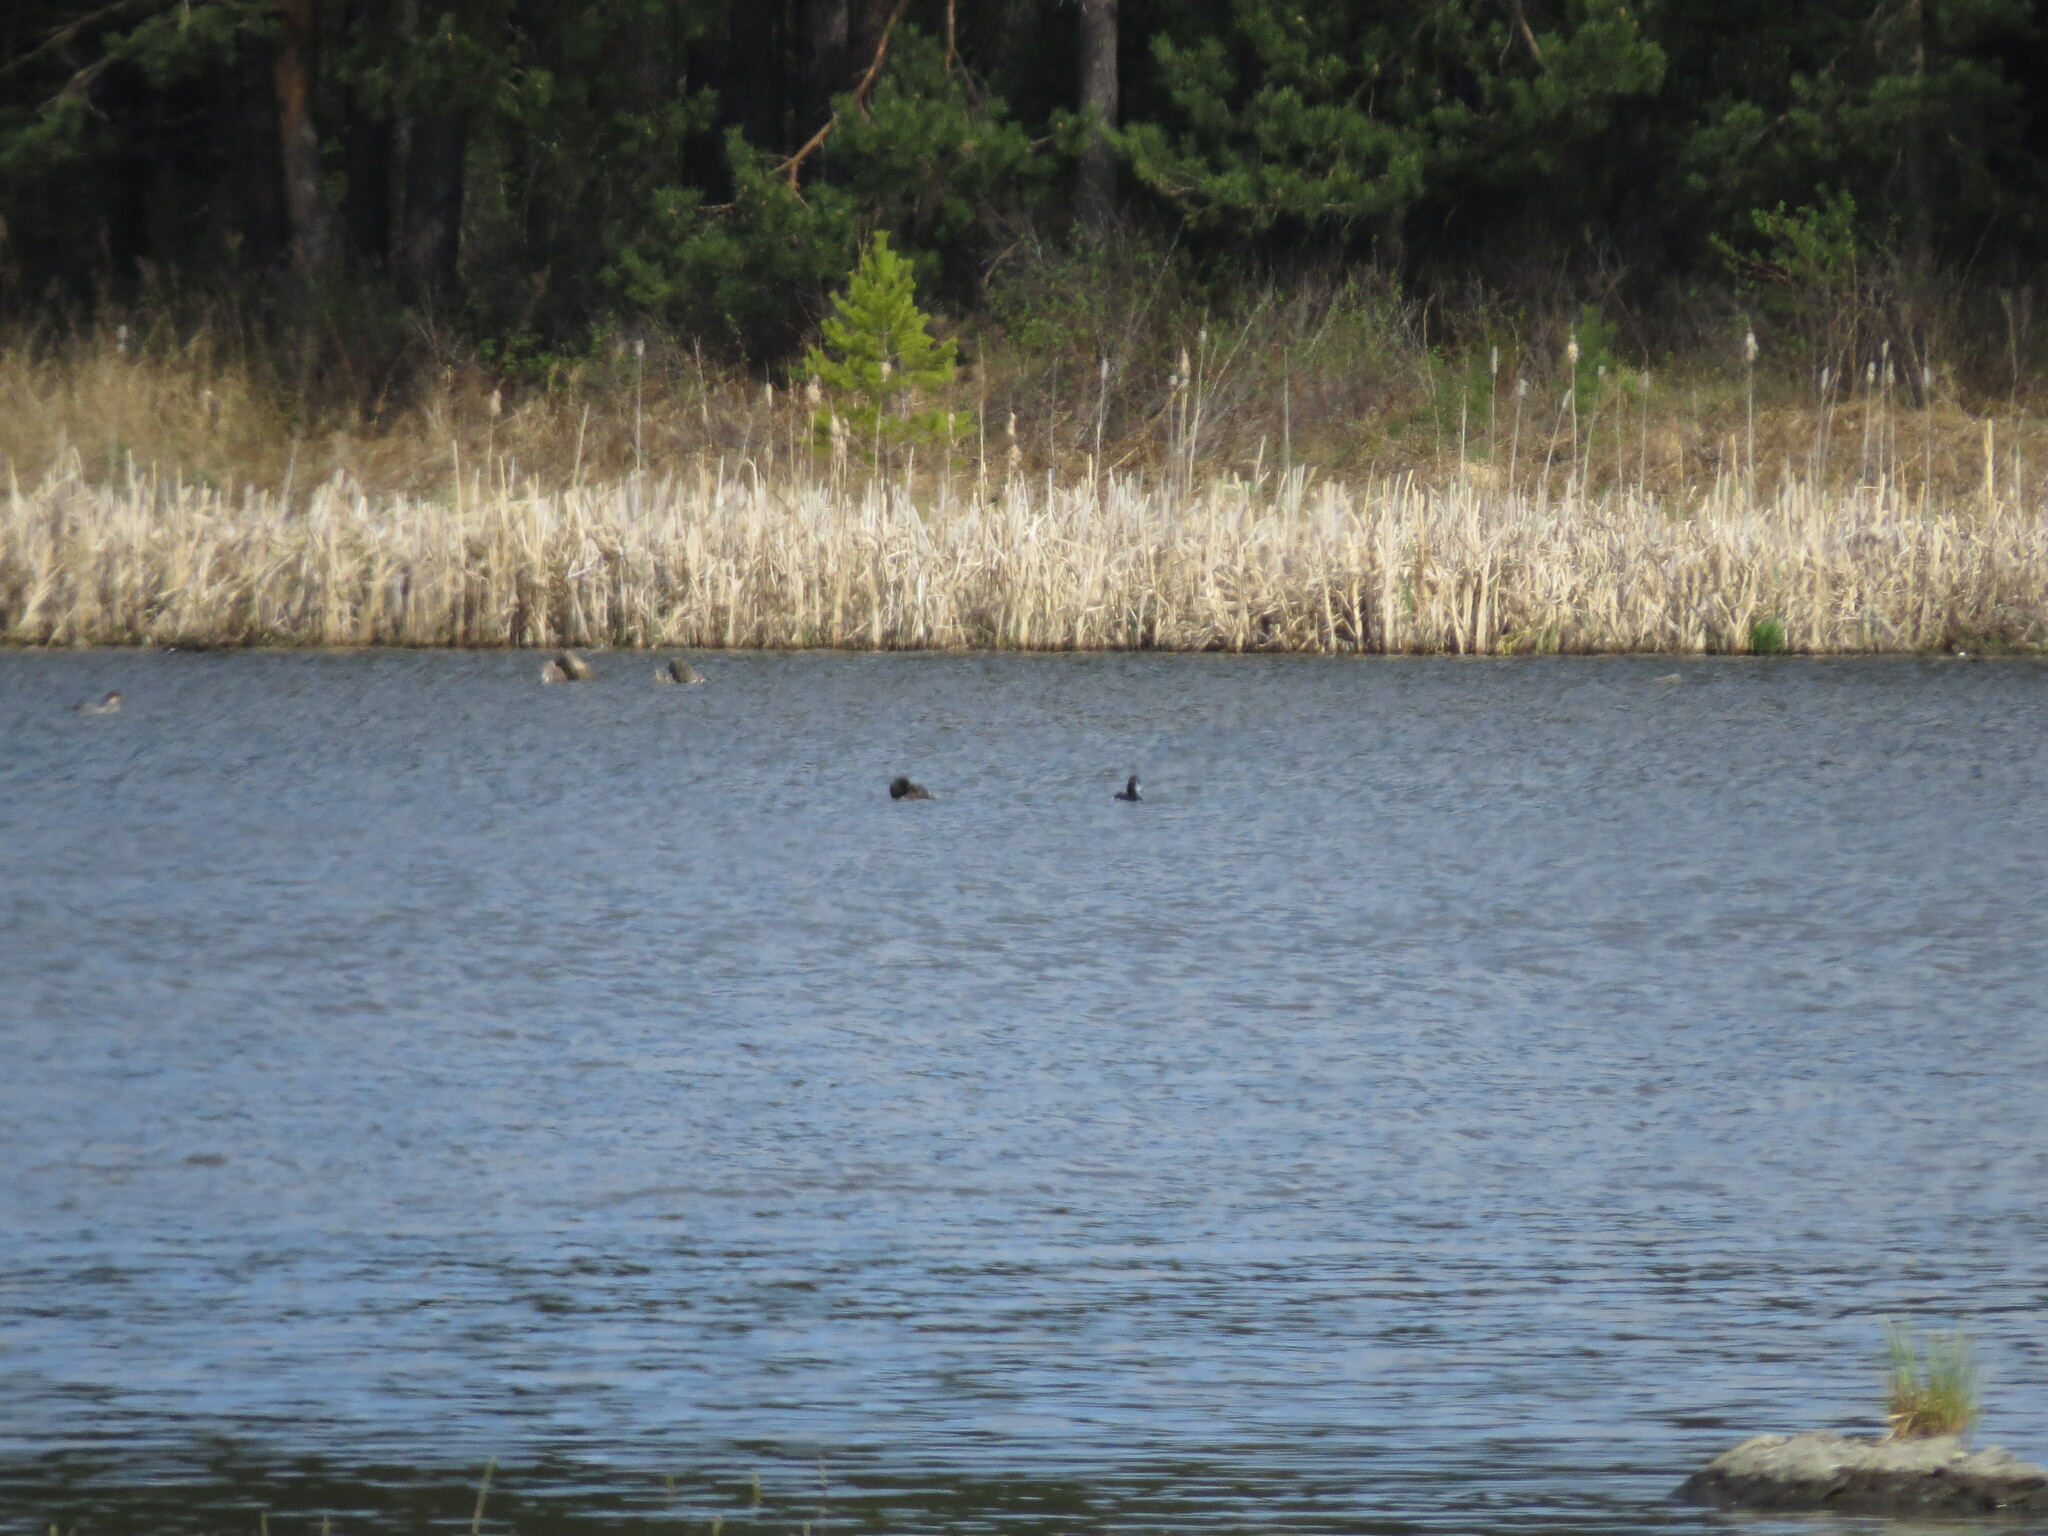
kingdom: Animalia
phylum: Chordata
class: Aves
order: Anseriformes
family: Anatidae
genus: Aythya
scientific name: Aythya fuligula
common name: Tufted duck
